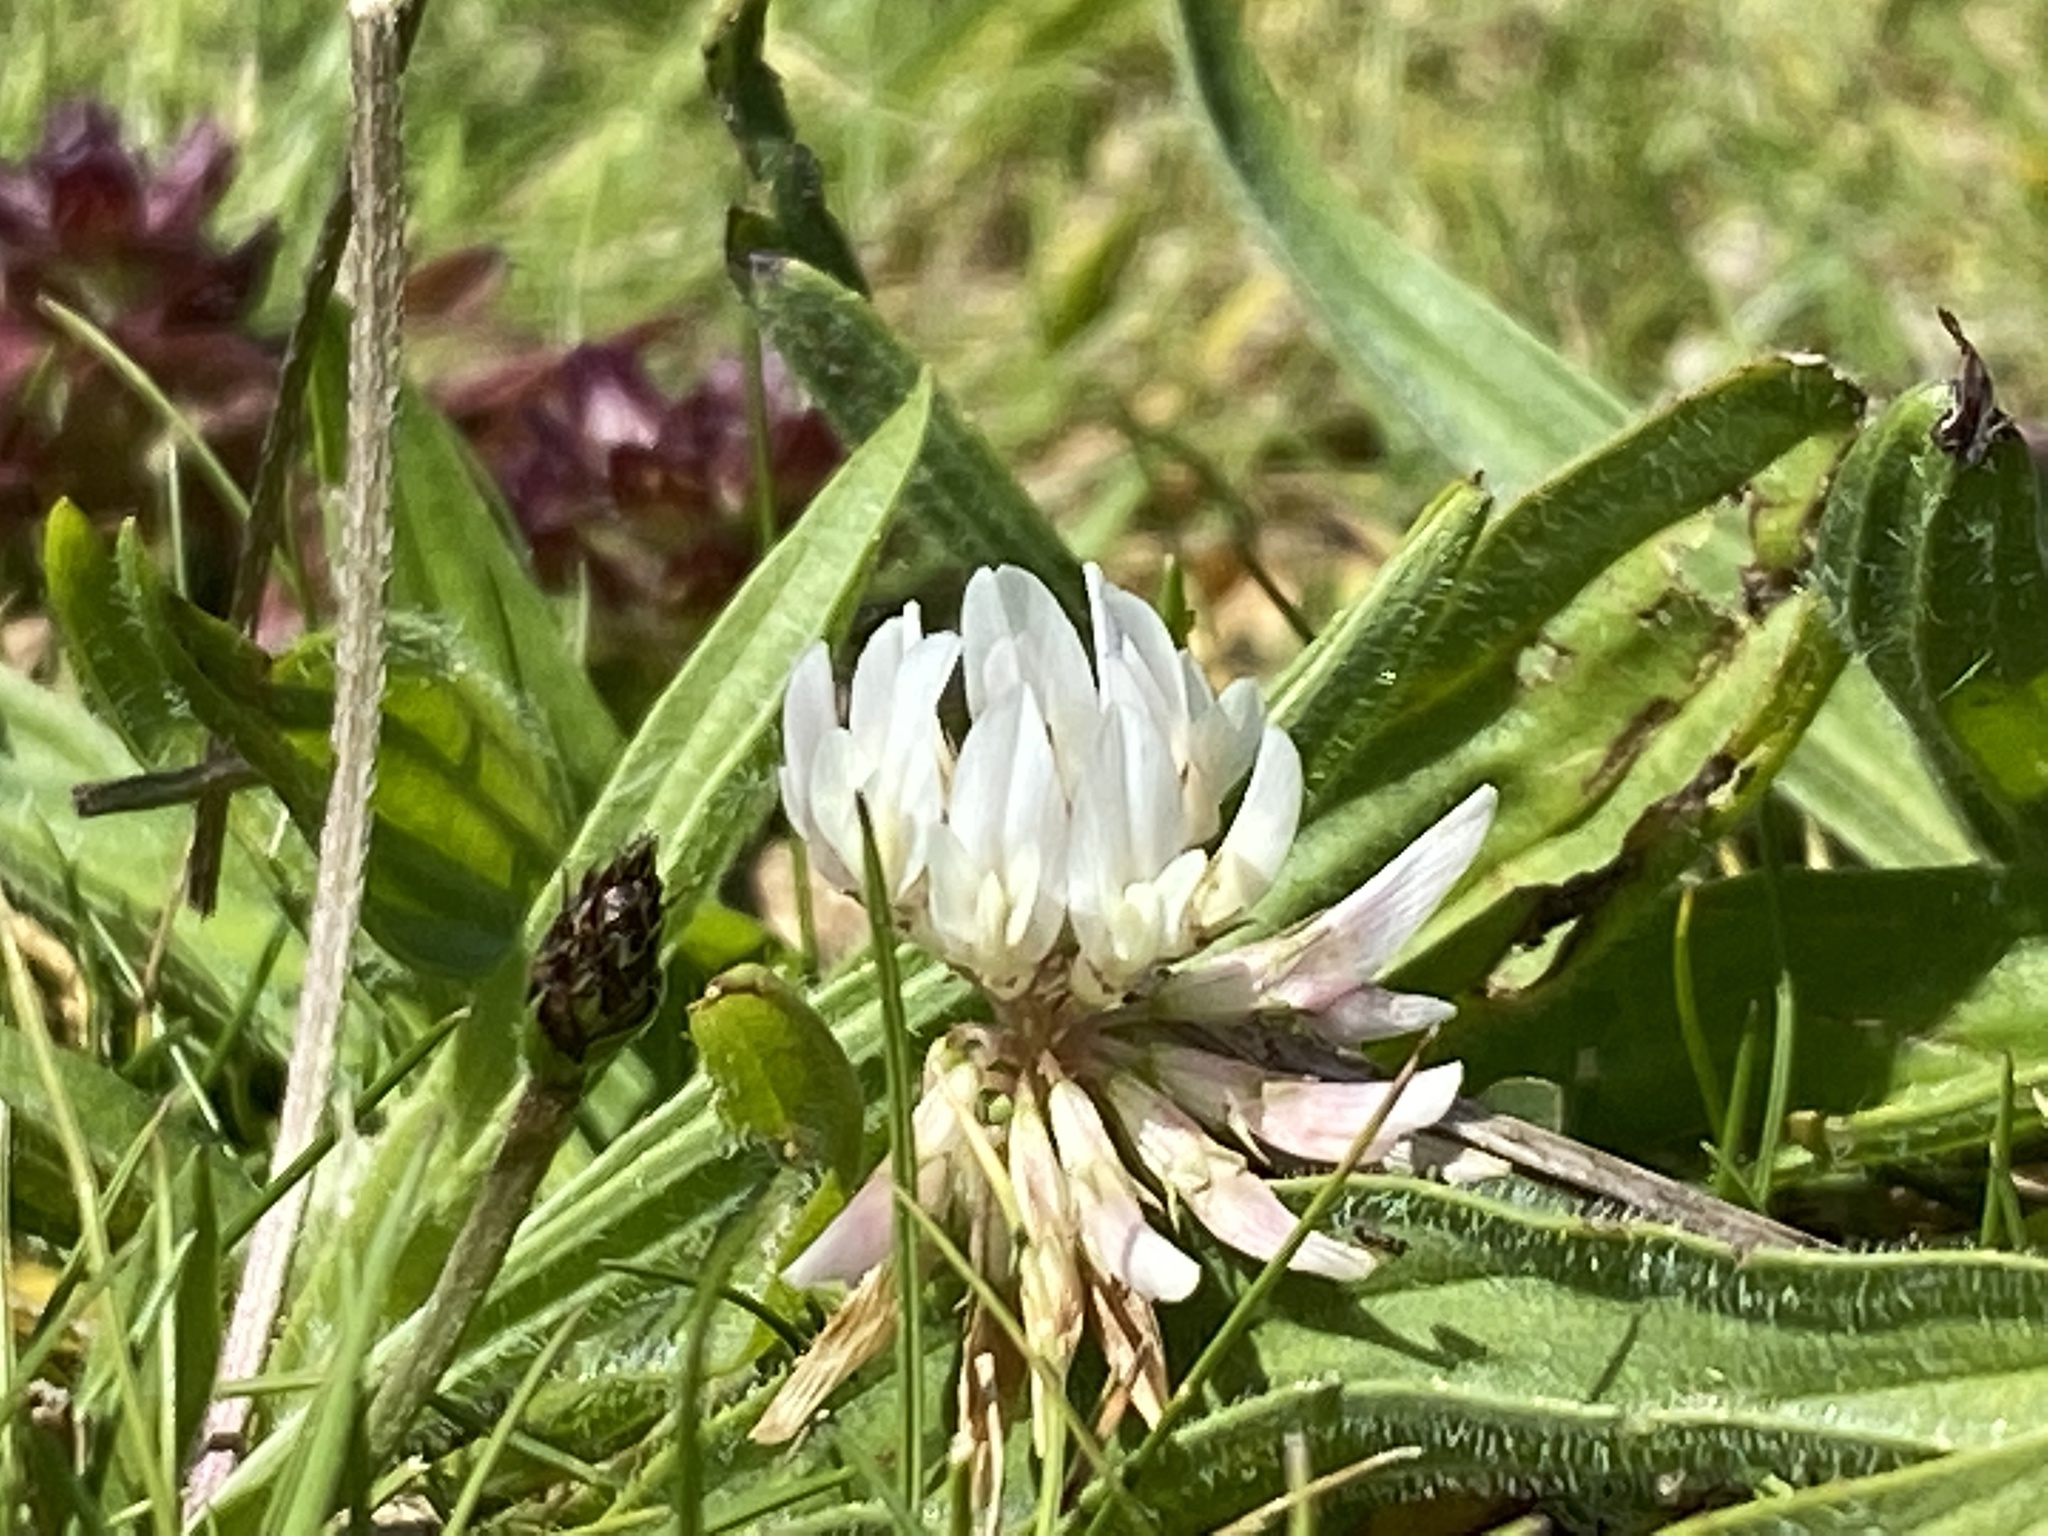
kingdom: Plantae
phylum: Tracheophyta
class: Magnoliopsida
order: Fabales
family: Fabaceae
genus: Trifolium
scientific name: Trifolium repens
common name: White clover
